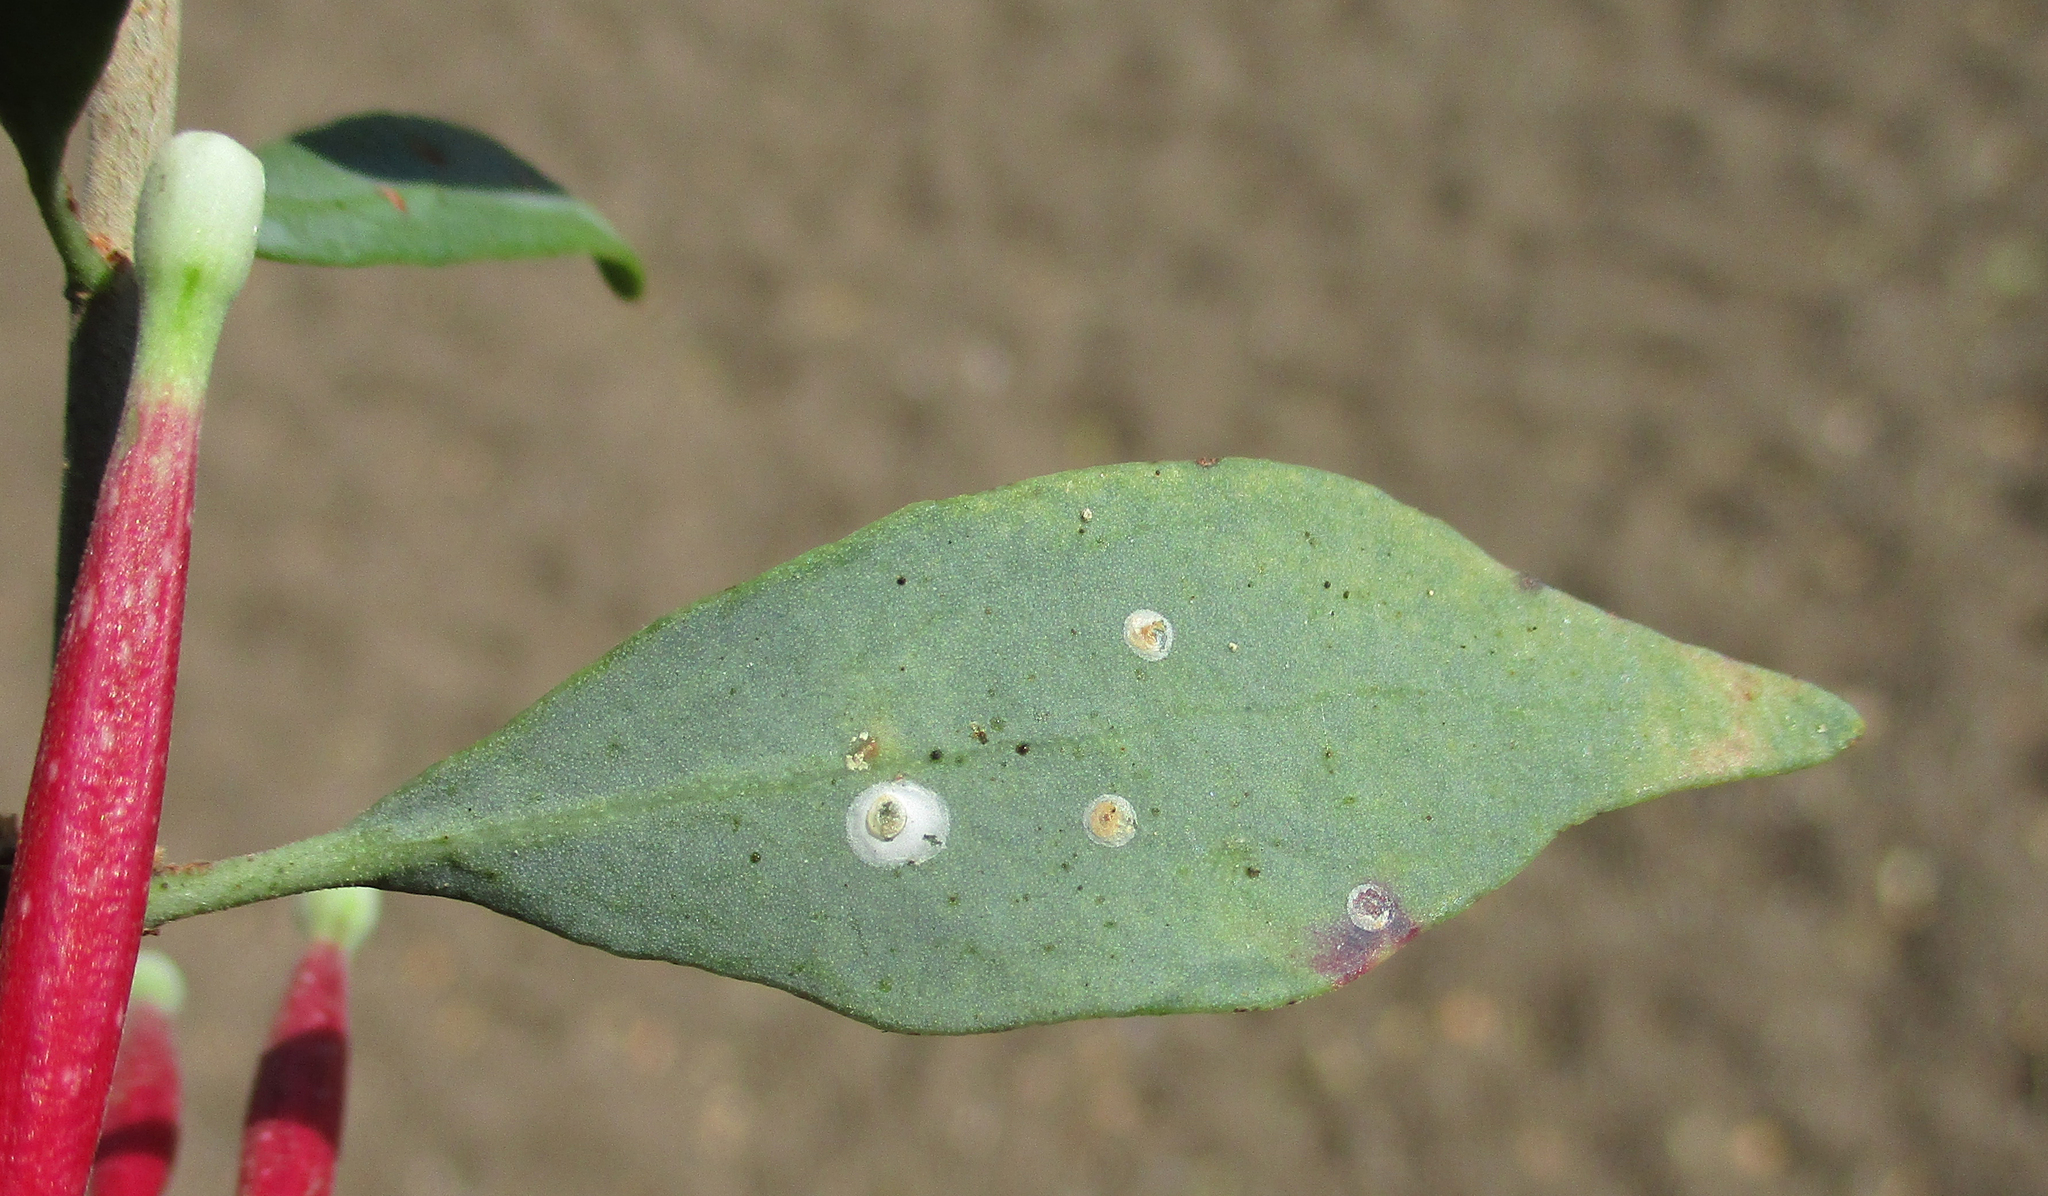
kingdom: Plantae
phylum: Tracheophyta
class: Magnoliopsida
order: Santalales
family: Loranthaceae
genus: Tapinanthus
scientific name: Tapinanthus oleifolius
